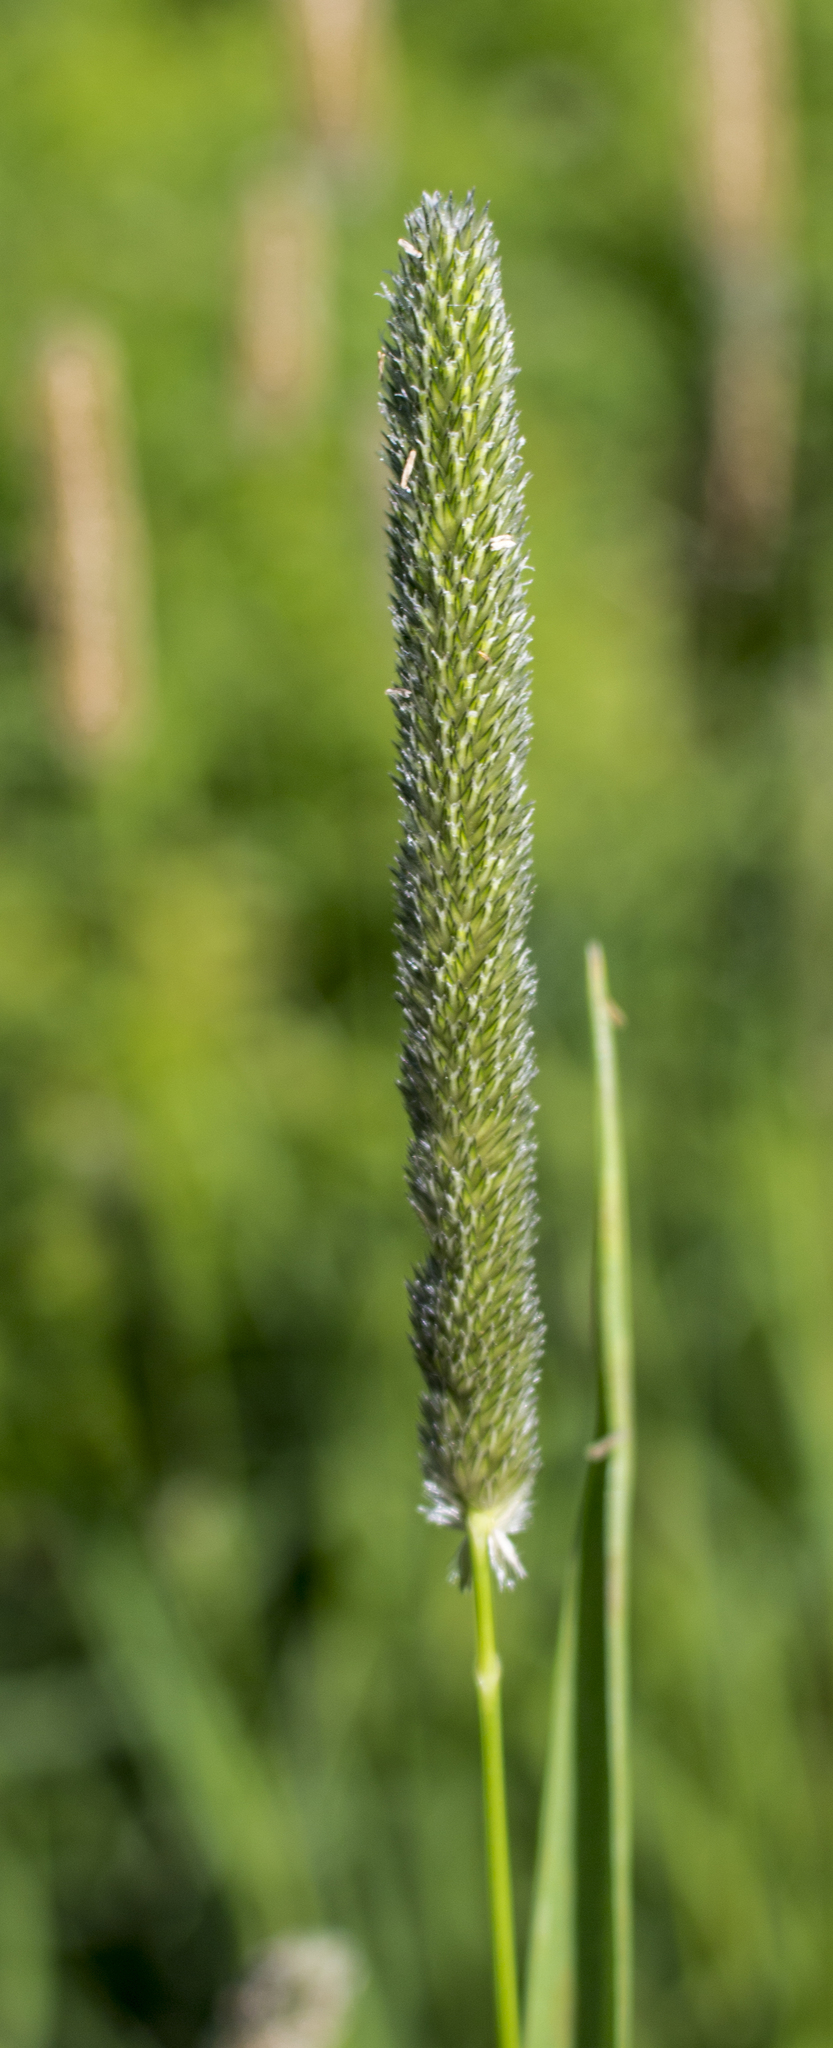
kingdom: Plantae
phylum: Tracheophyta
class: Liliopsida
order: Poales
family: Poaceae
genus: Phleum
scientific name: Phleum pratense
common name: Timothy grass
